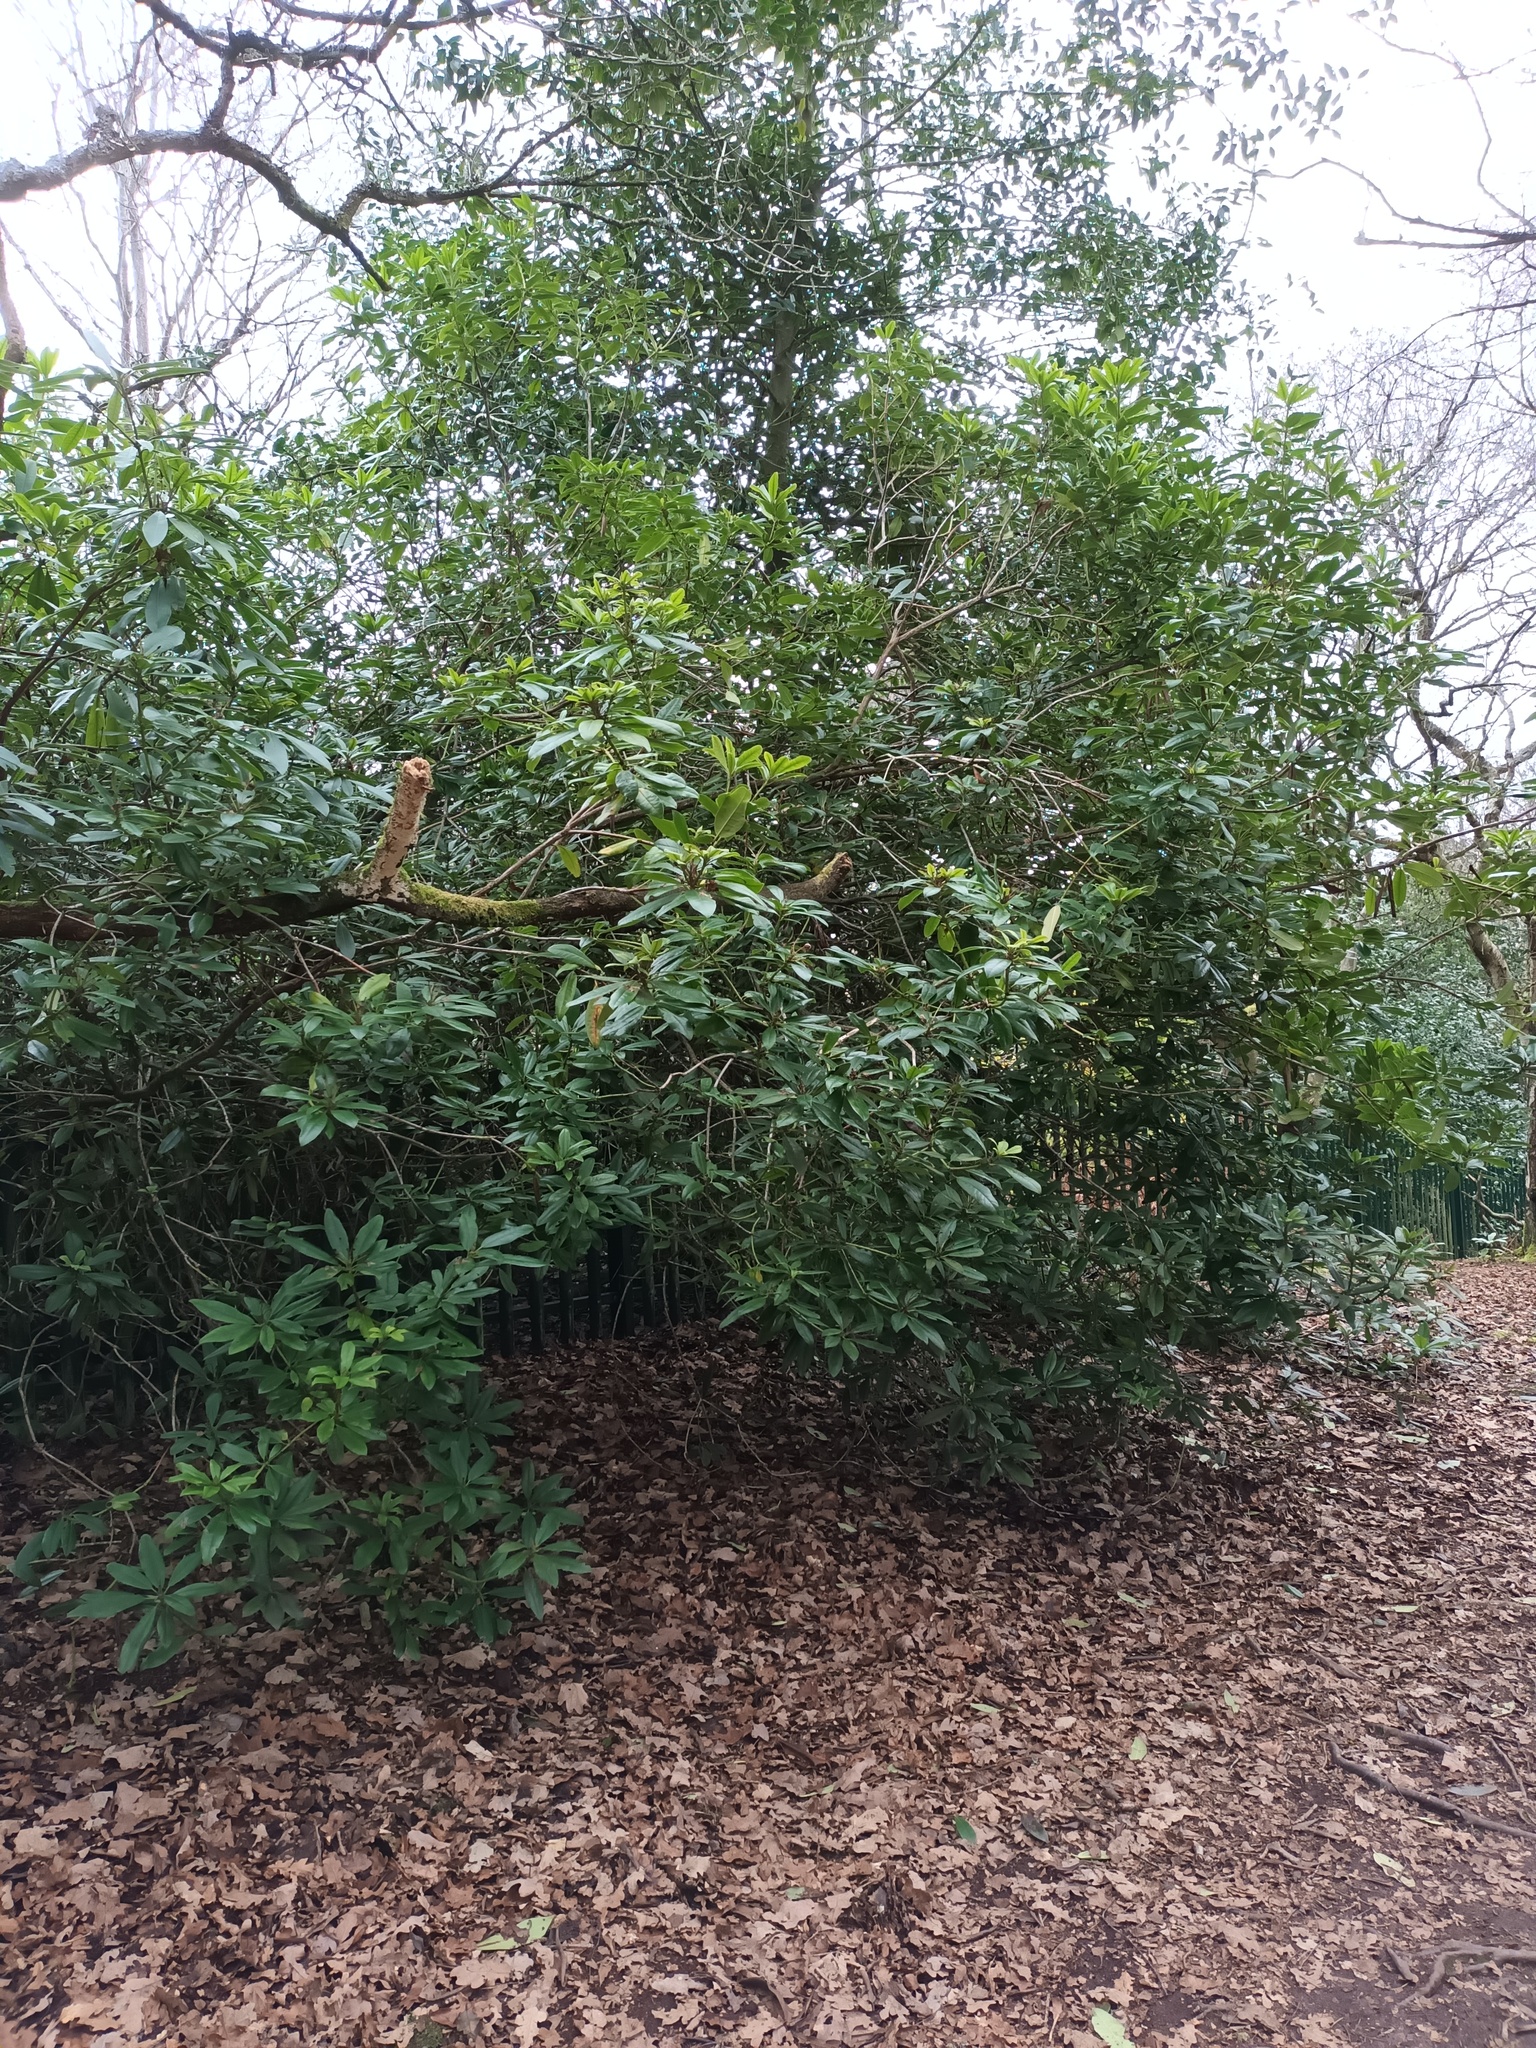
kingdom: Plantae
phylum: Tracheophyta
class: Magnoliopsida
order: Ericales
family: Ericaceae
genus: Rhododendron
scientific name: Rhododendron ponticum
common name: Rhododendron
